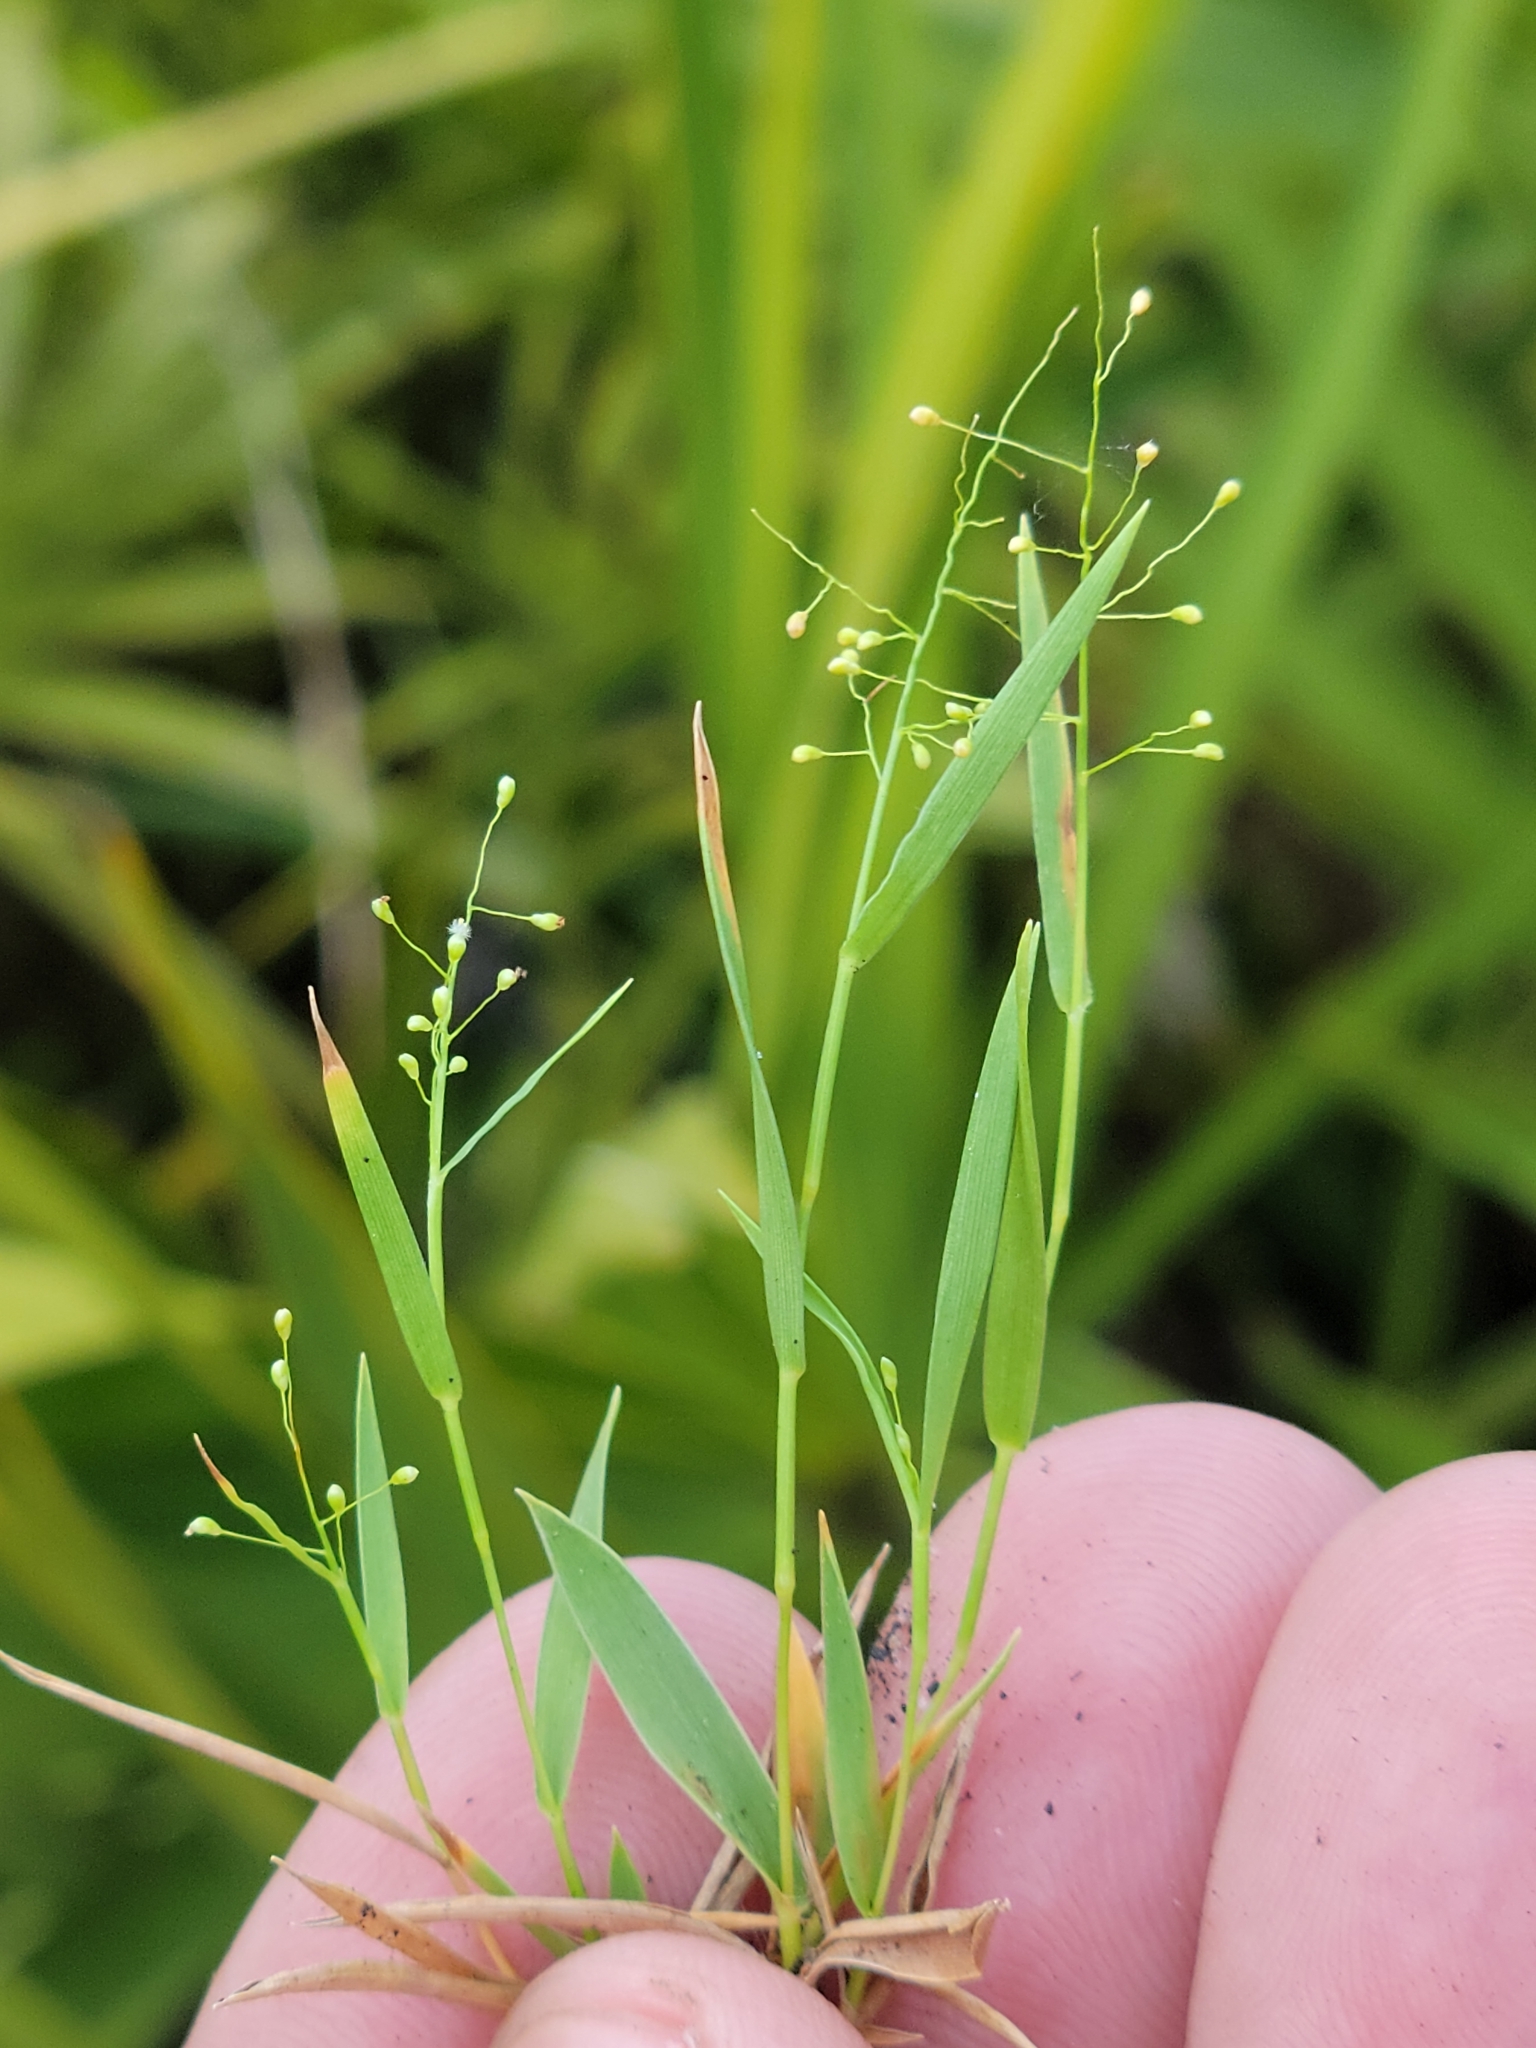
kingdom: Plantae
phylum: Tracheophyta
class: Liliopsida
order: Poales
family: Poaceae
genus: Dichanthelium
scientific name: Dichanthelium chamaelonche
